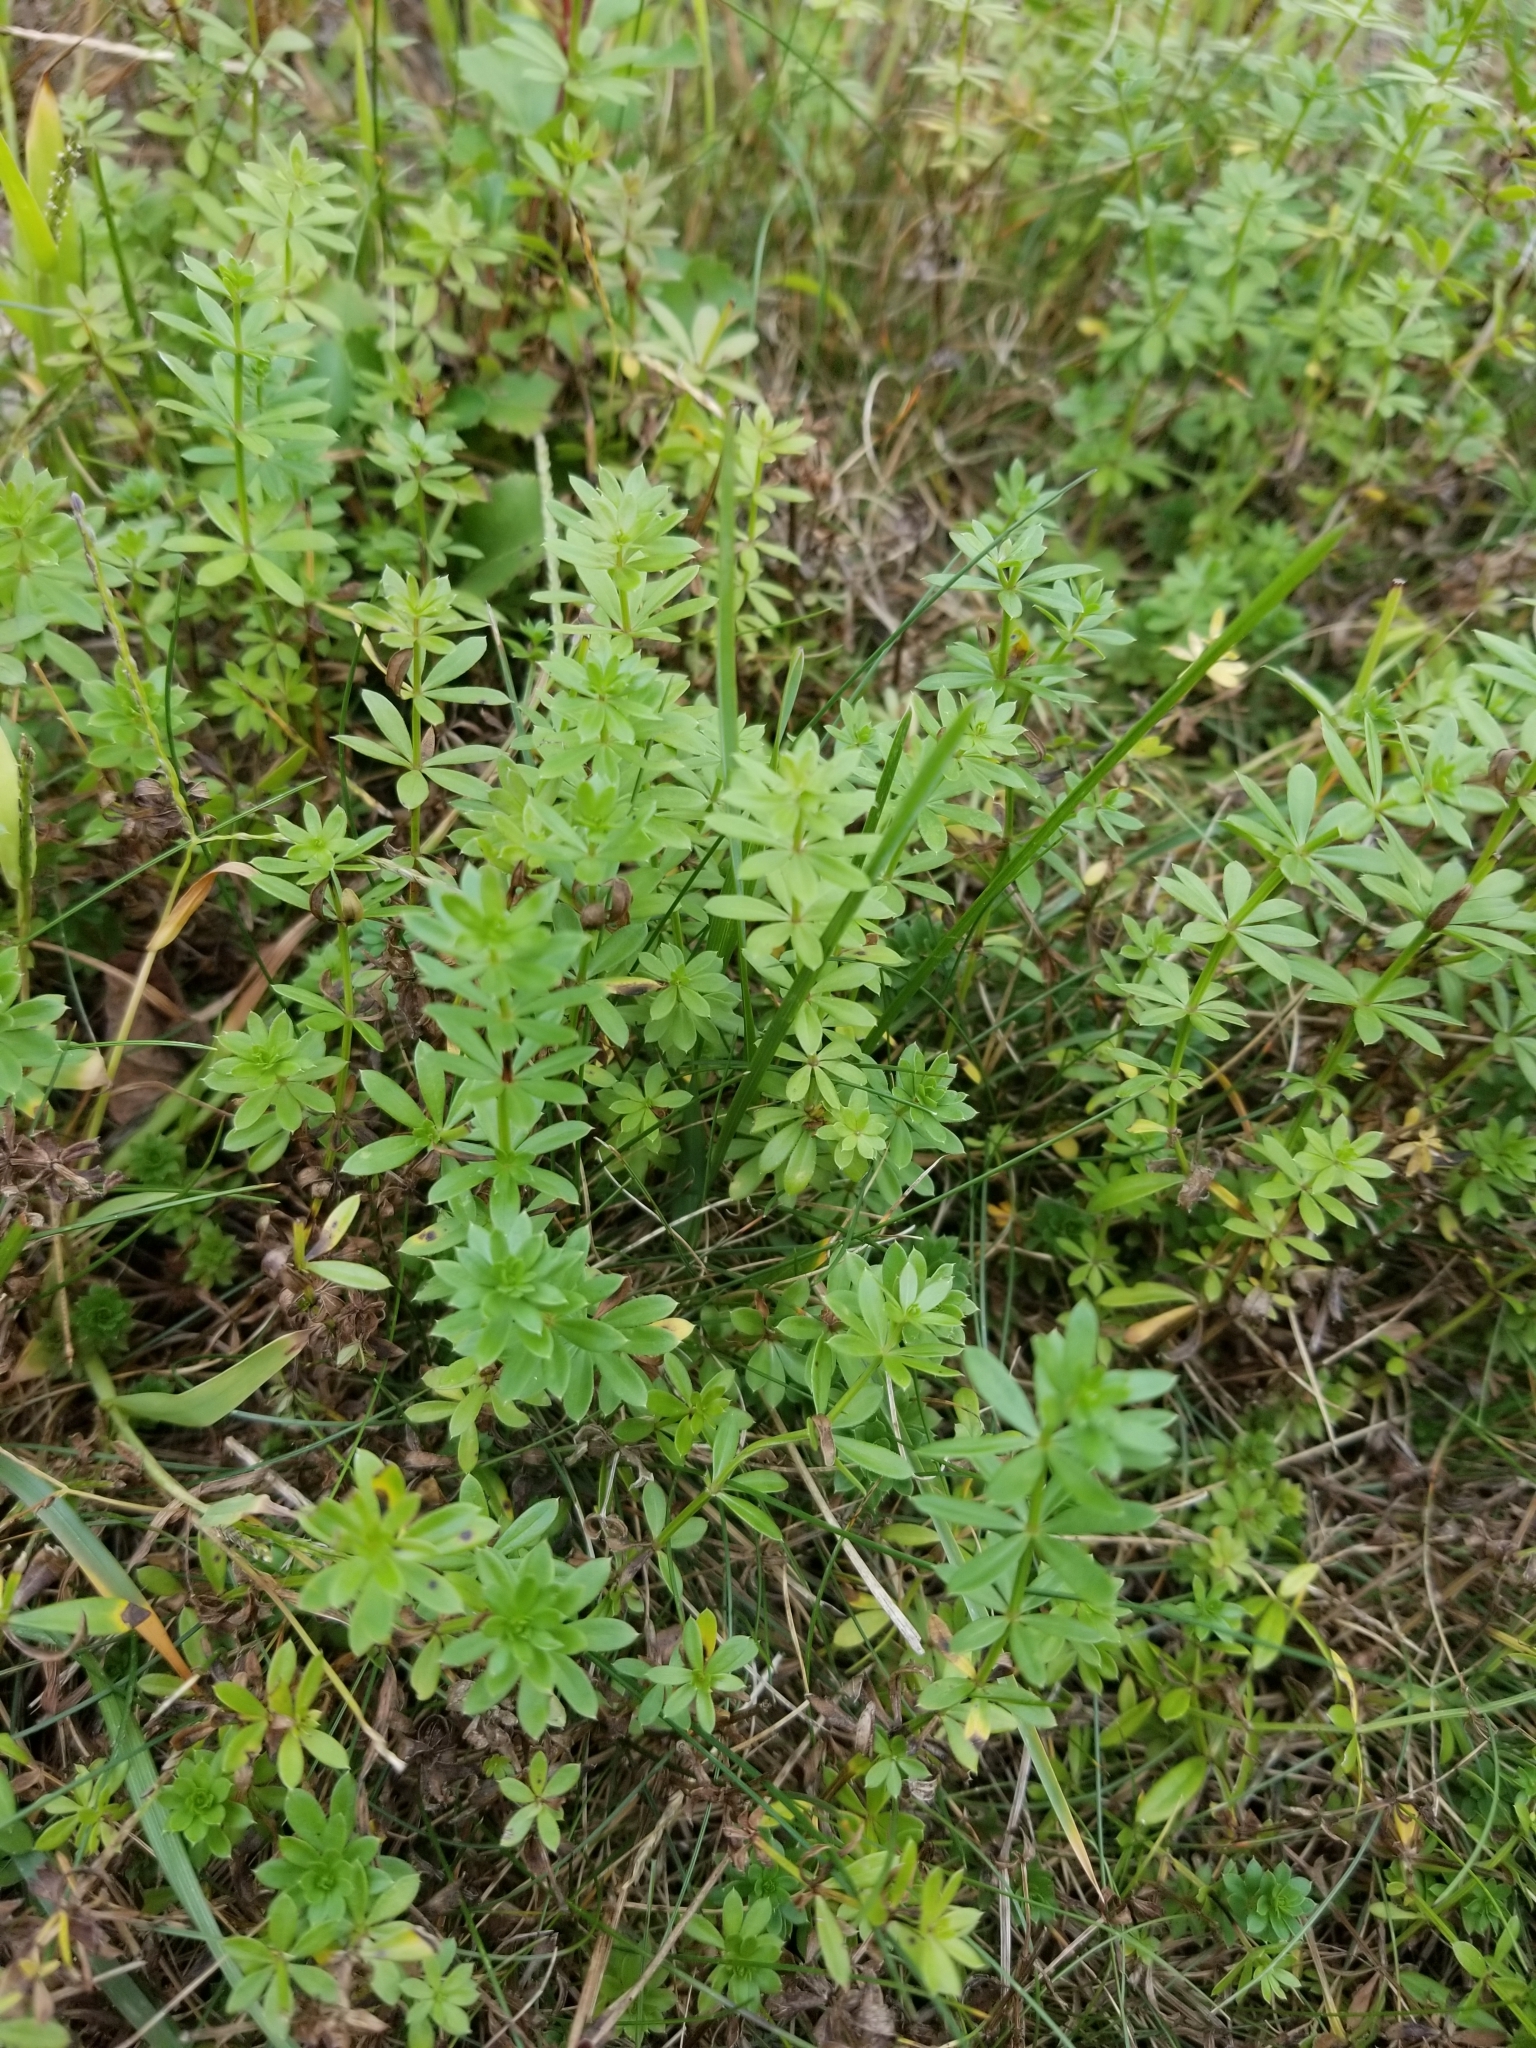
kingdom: Plantae
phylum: Tracheophyta
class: Magnoliopsida
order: Gentianales
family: Rubiaceae
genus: Galium
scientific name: Galium album
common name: White bedstraw
